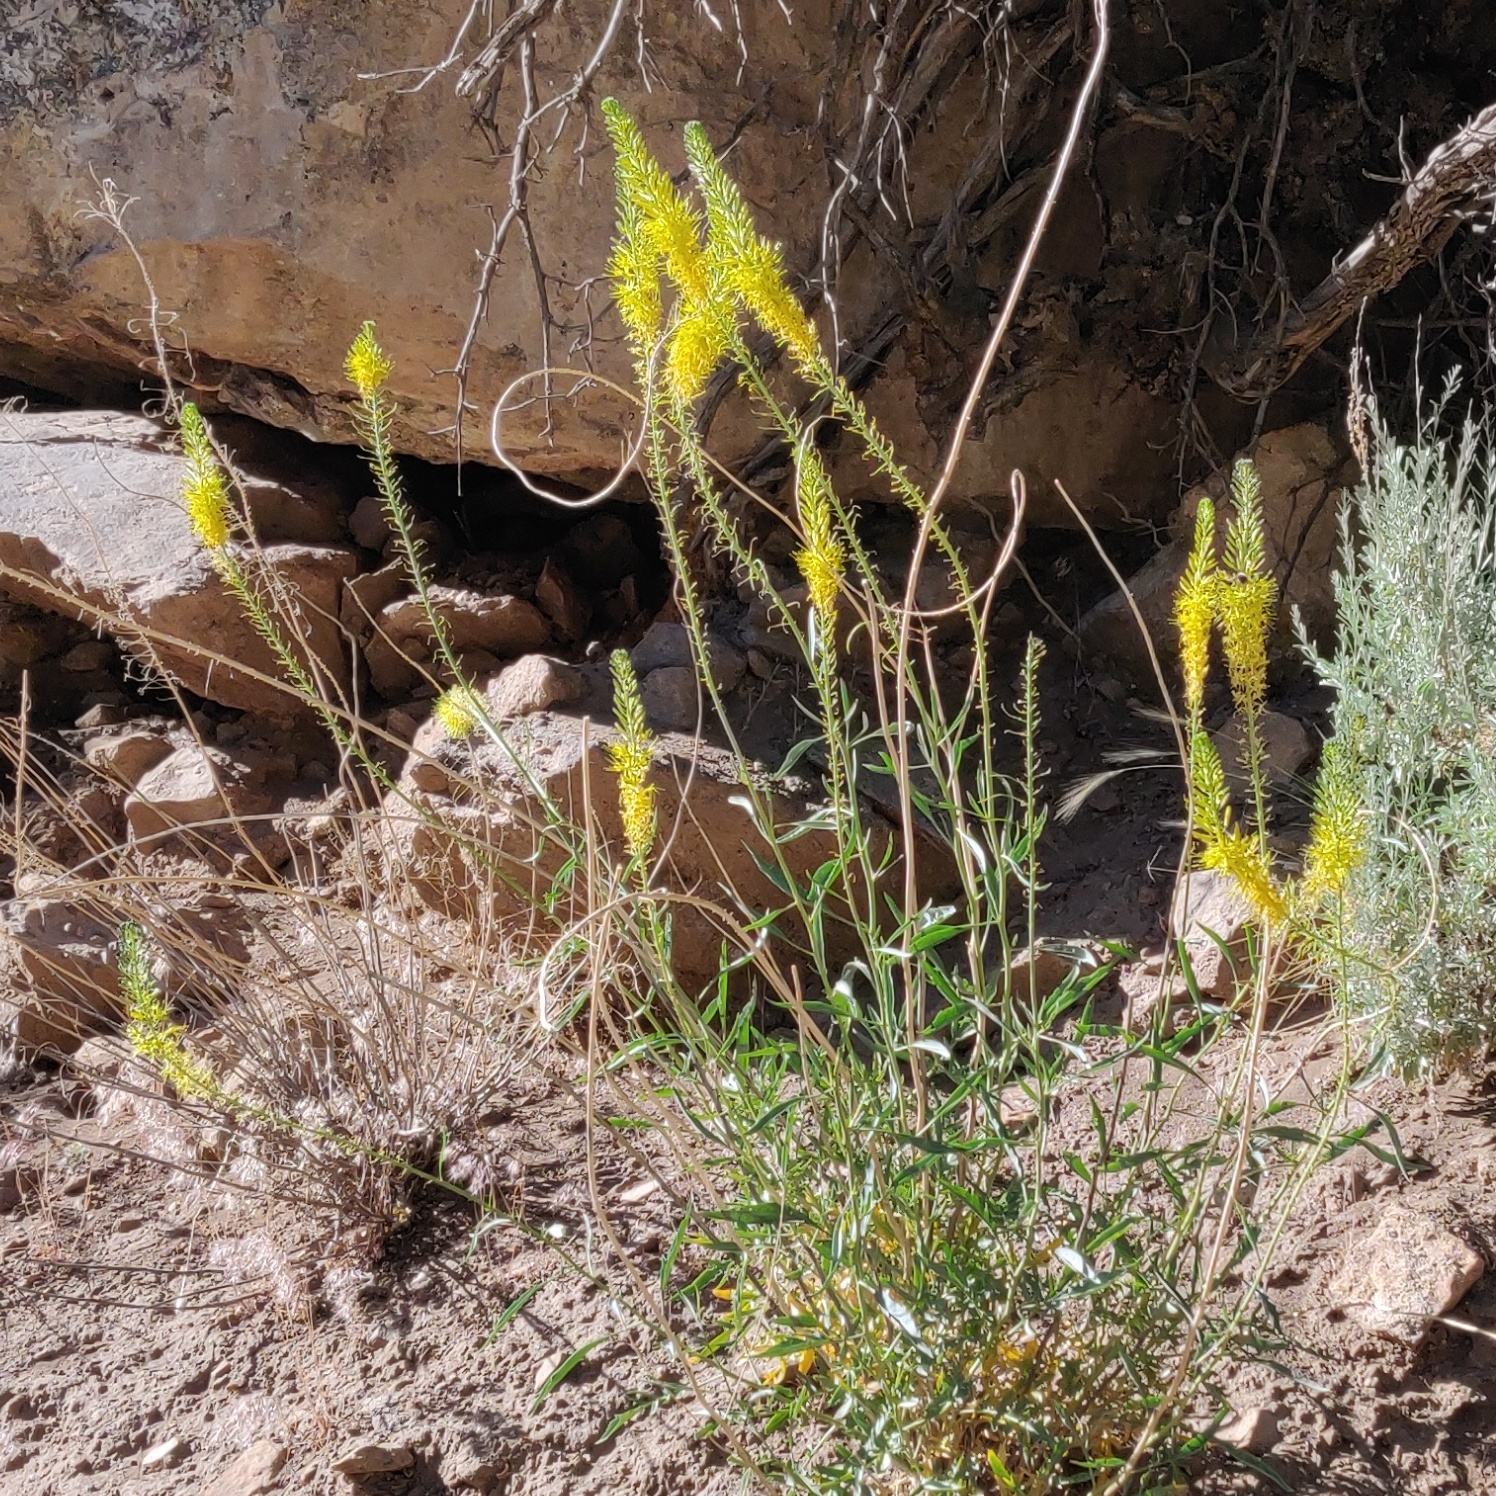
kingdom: Plantae
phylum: Tracheophyta
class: Magnoliopsida
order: Brassicales
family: Brassicaceae
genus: Stanleya
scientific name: Stanleya pinnata
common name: Prince's-plume
